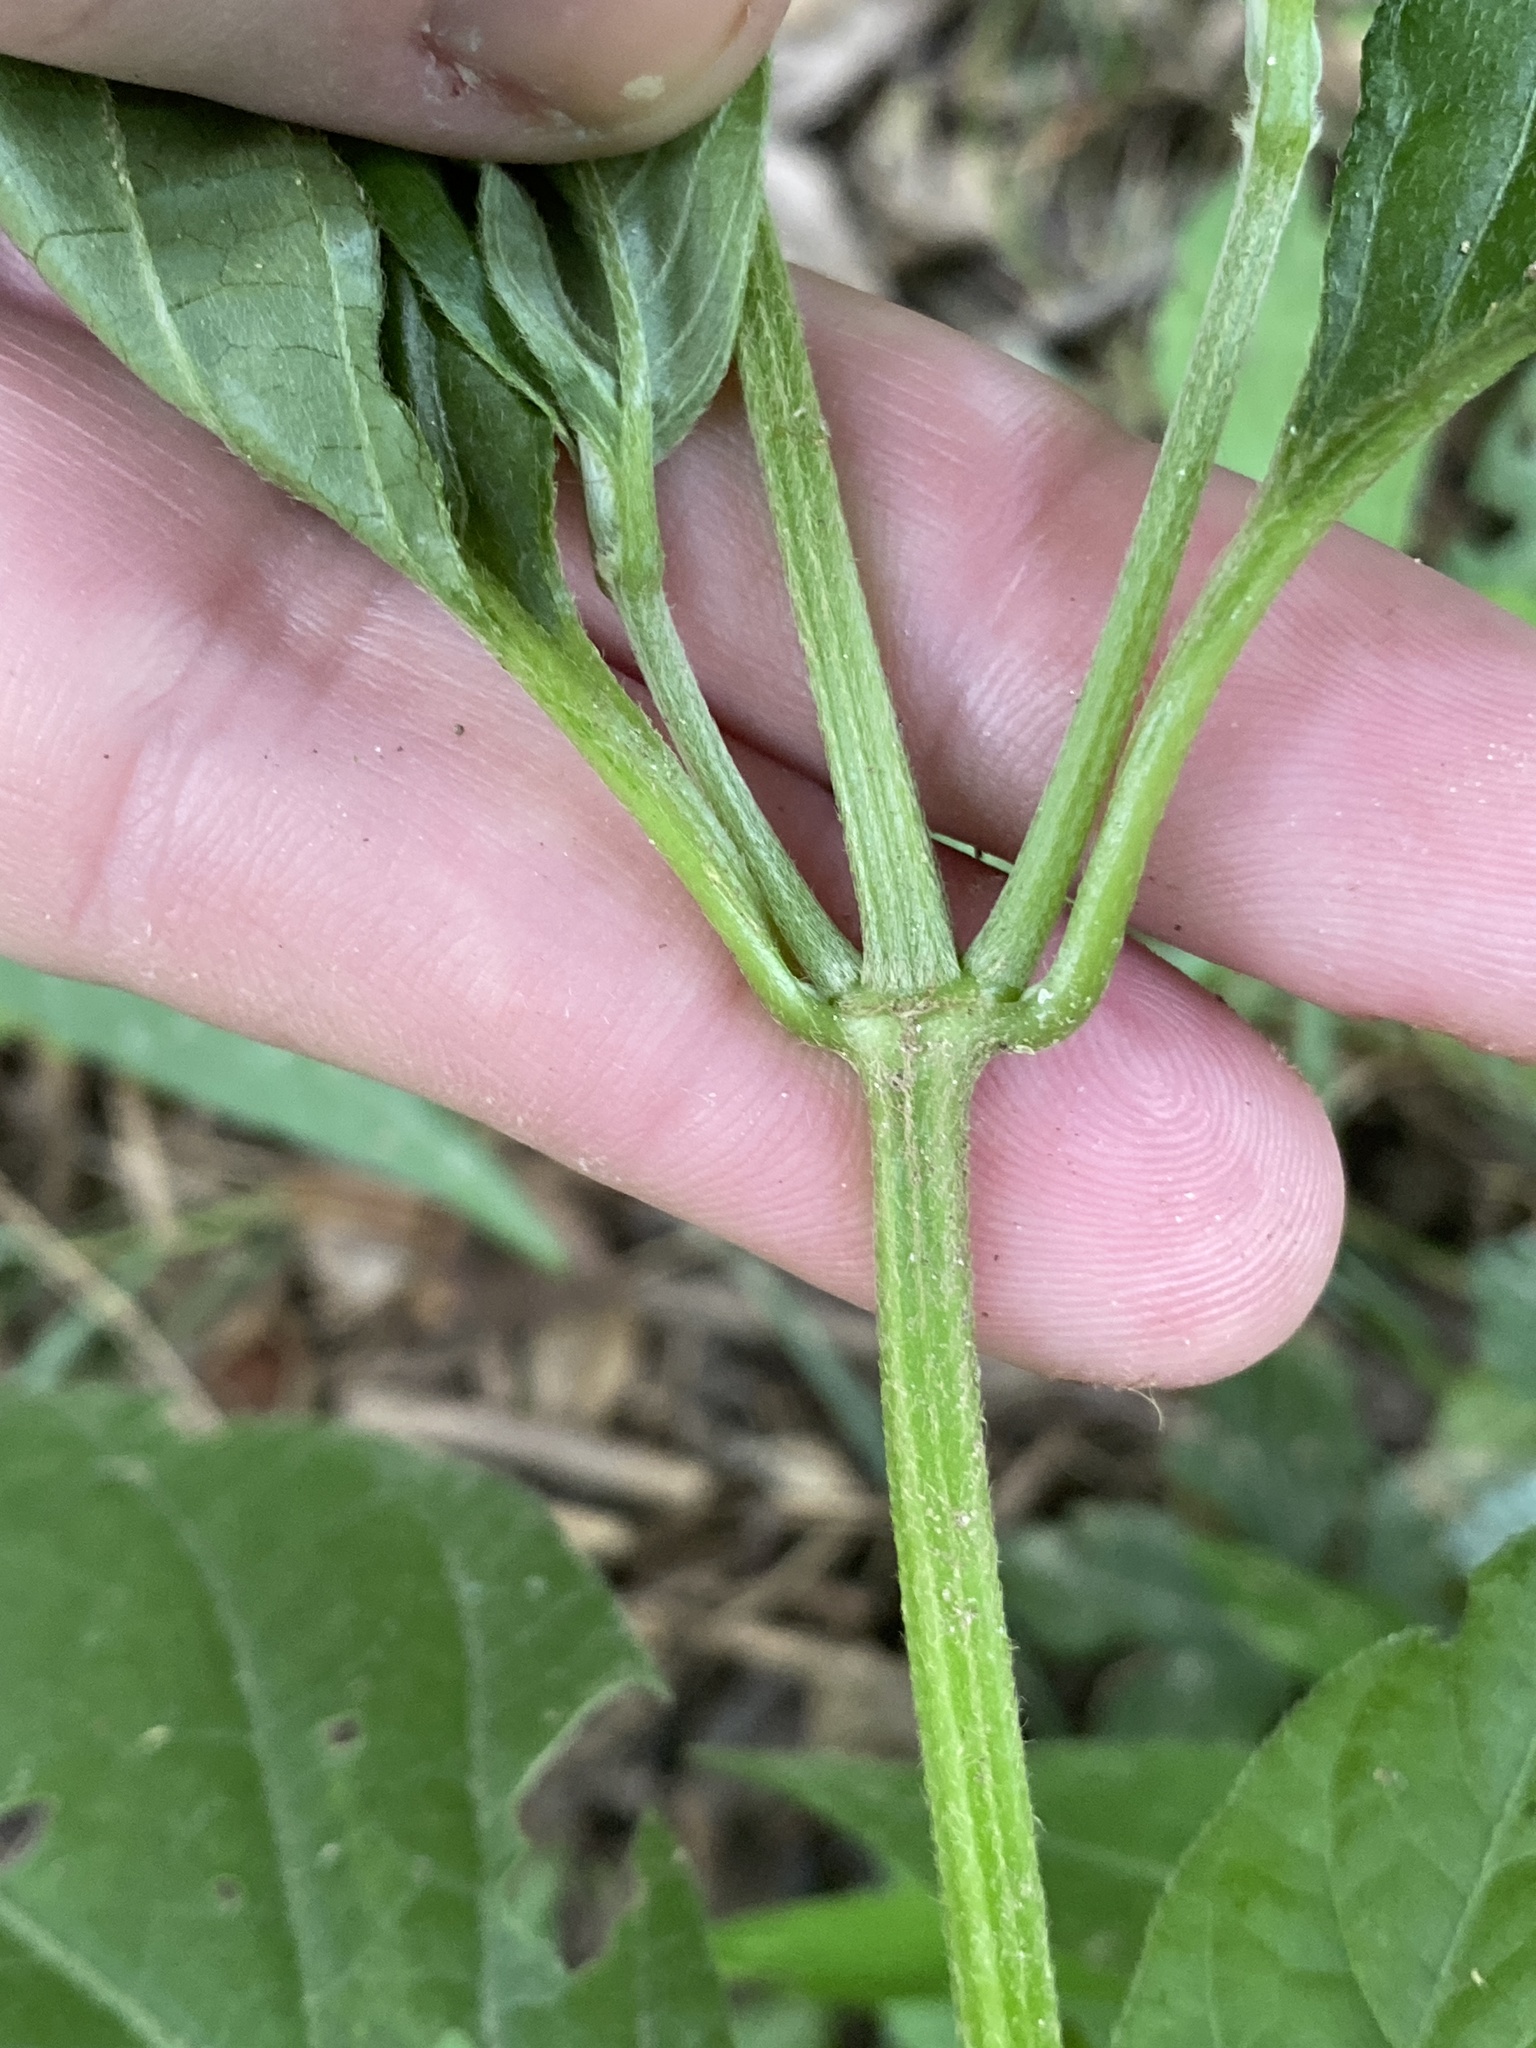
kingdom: Plantae
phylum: Tracheophyta
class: Magnoliopsida
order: Caryophyllales
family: Amaranthaceae
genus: Achyranthes
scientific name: Achyranthes bidentata
